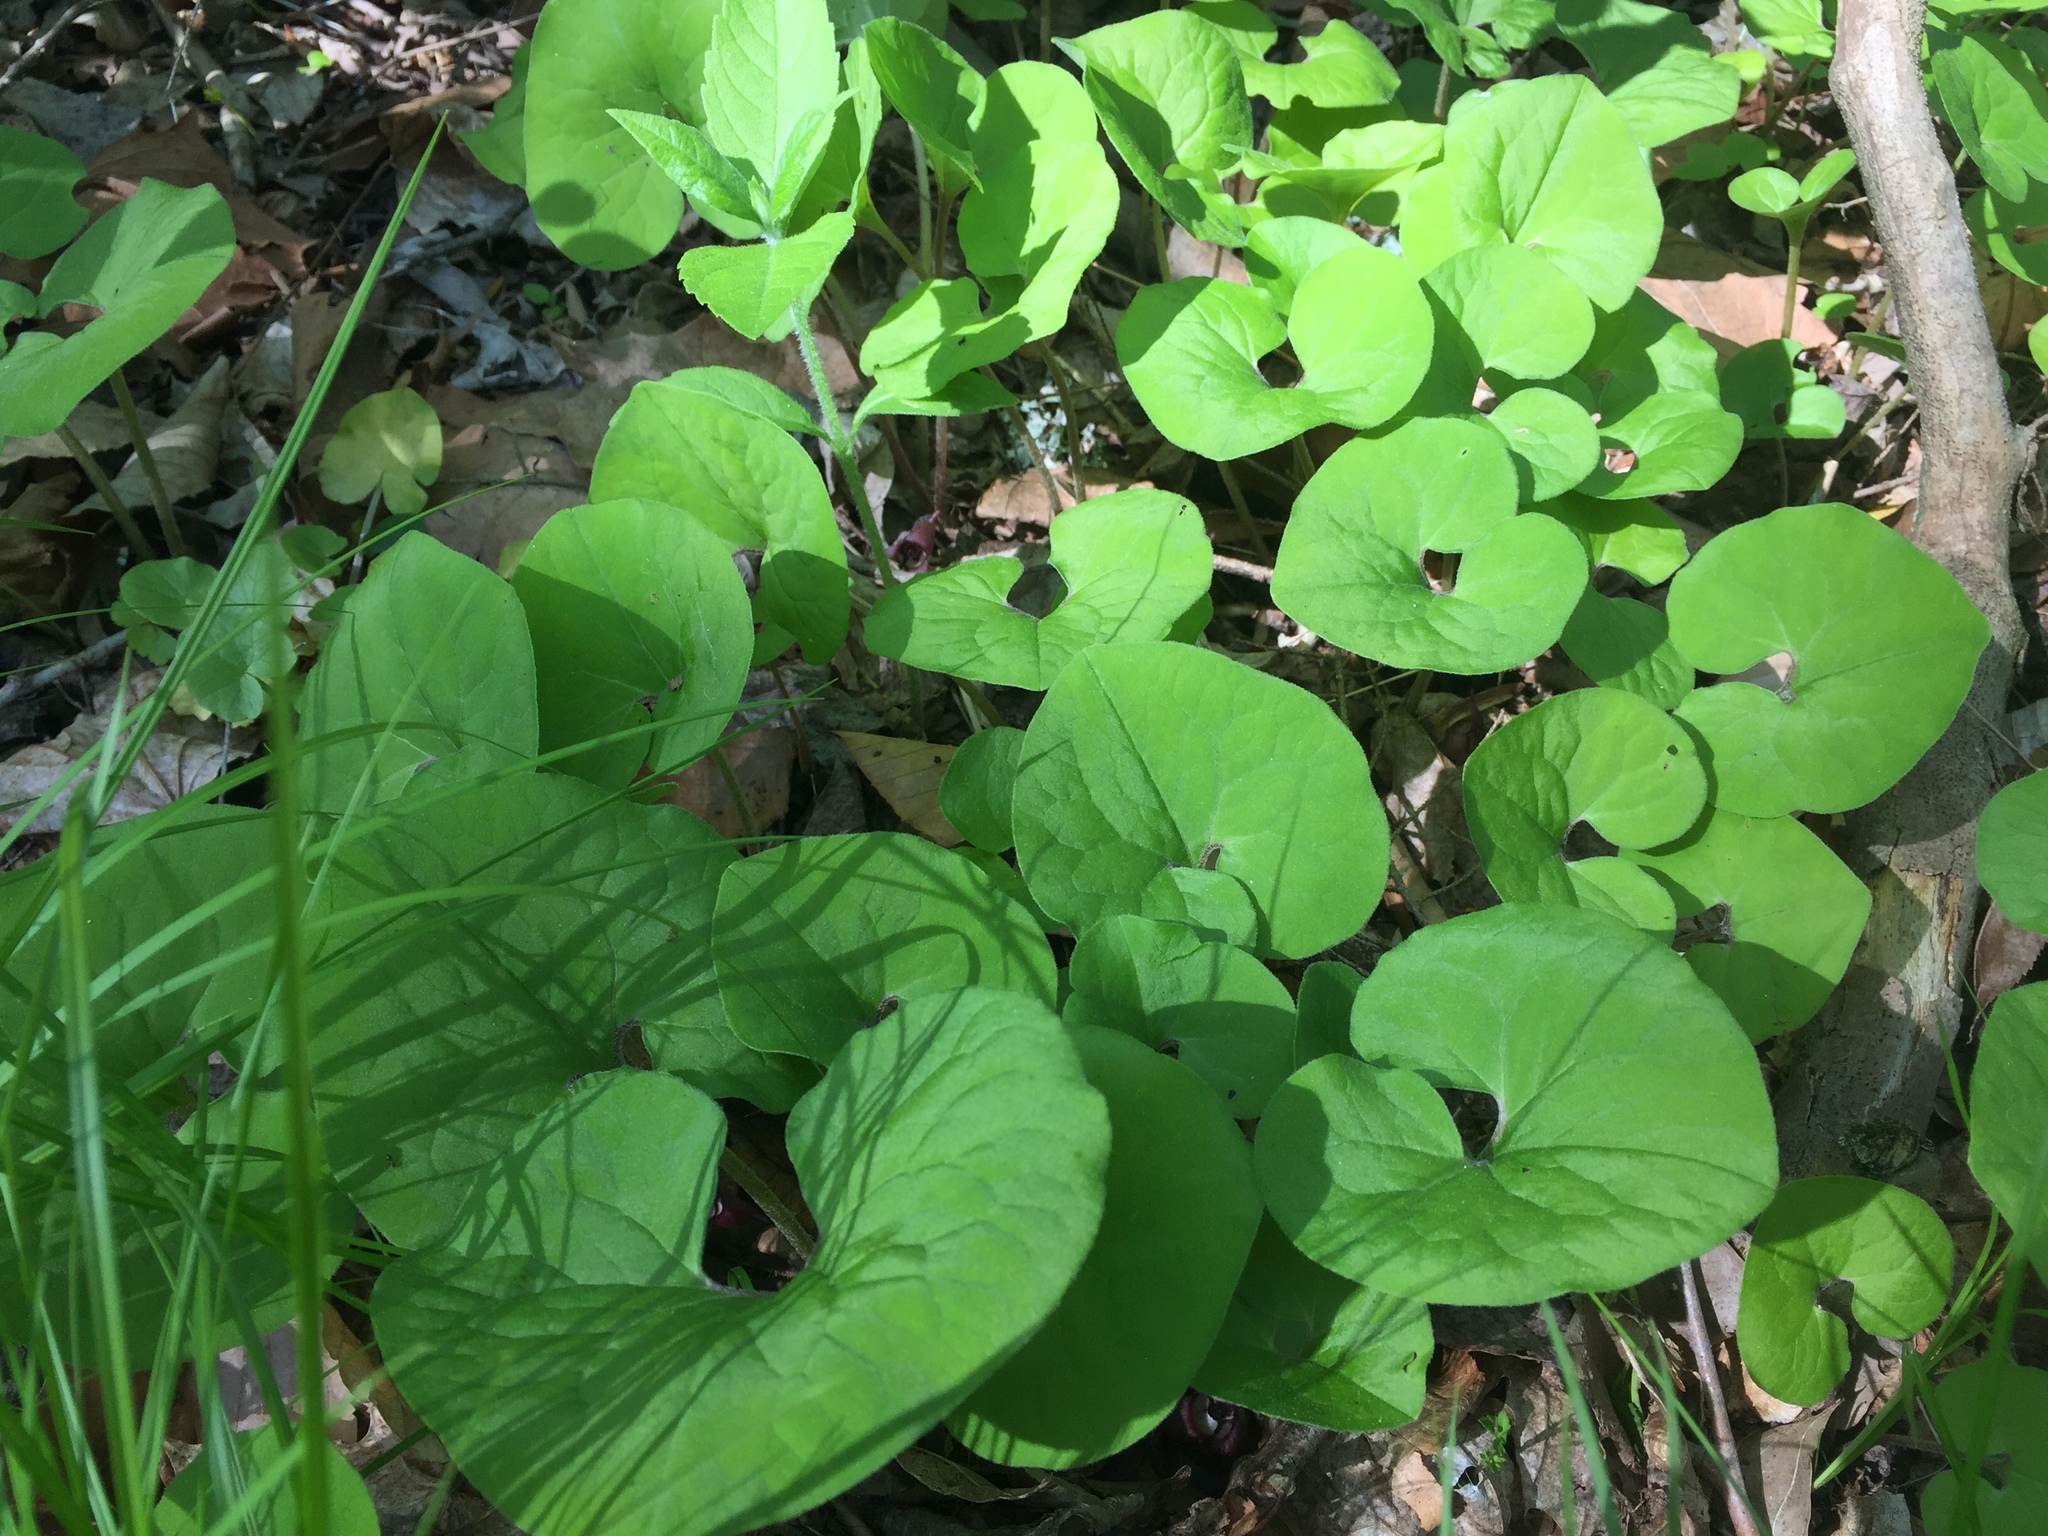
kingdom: Plantae
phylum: Tracheophyta
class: Magnoliopsida
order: Piperales
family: Aristolochiaceae
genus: Asarum
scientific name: Asarum canadense
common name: Wild ginger
